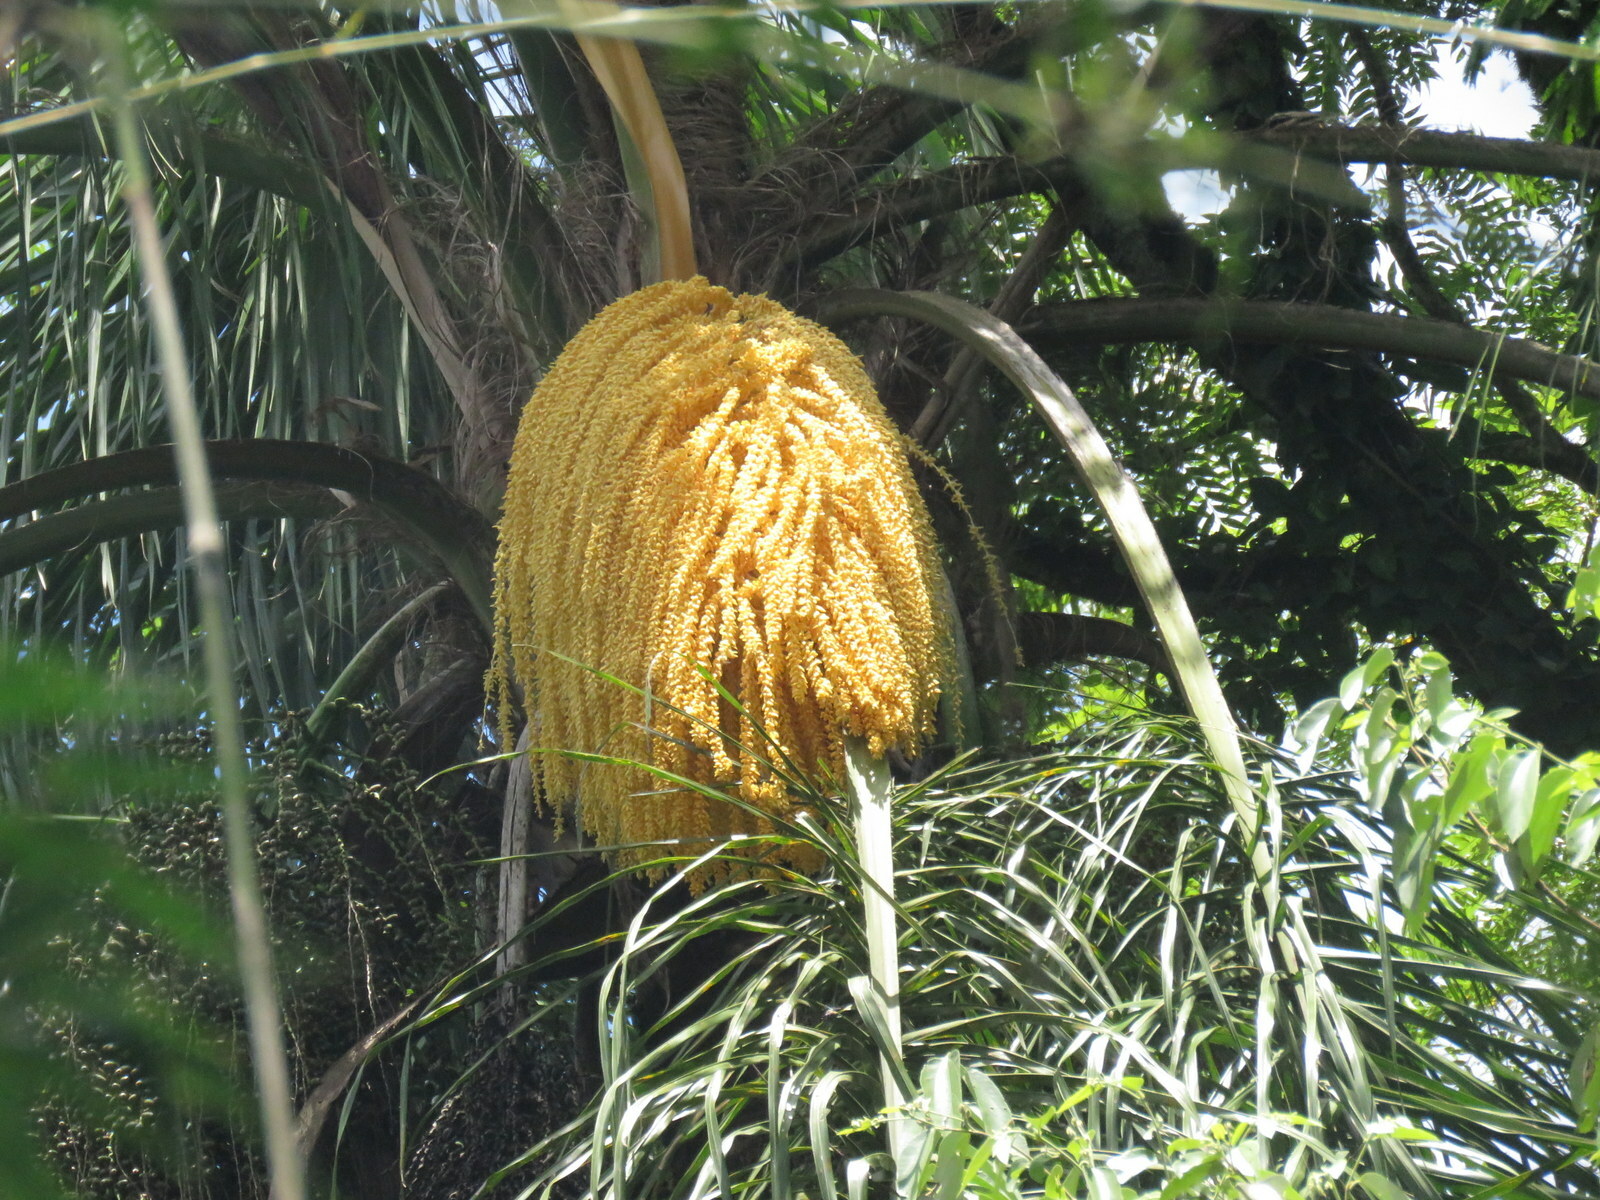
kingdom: Plantae
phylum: Tracheophyta
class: Liliopsida
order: Arecales
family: Arecaceae
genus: Syagrus
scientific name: Syagrus romanzoffiana
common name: Queen palm
